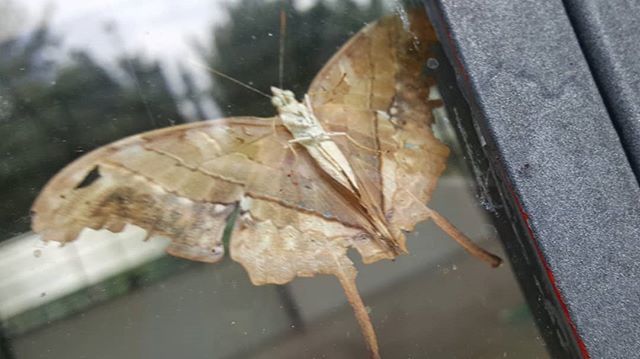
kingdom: Animalia
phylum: Arthropoda
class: Insecta
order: Lepidoptera
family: Nymphalidae
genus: Marpesia
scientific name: Marpesia petreus
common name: Red dagger wing
